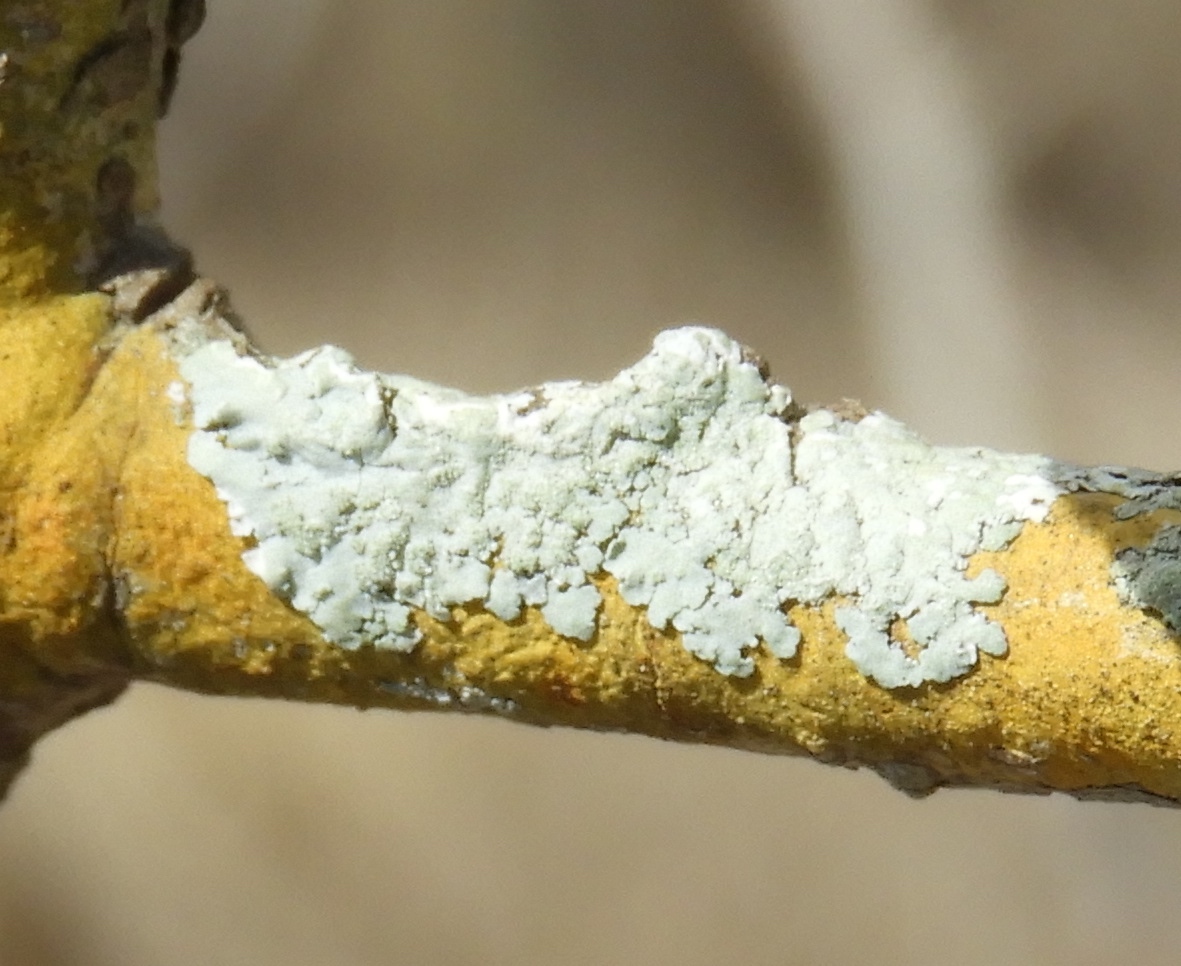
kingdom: Fungi
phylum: Ascomycota
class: Lecanoromycetes
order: Caliciales
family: Physciaceae
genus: Physcia
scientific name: Physcia
